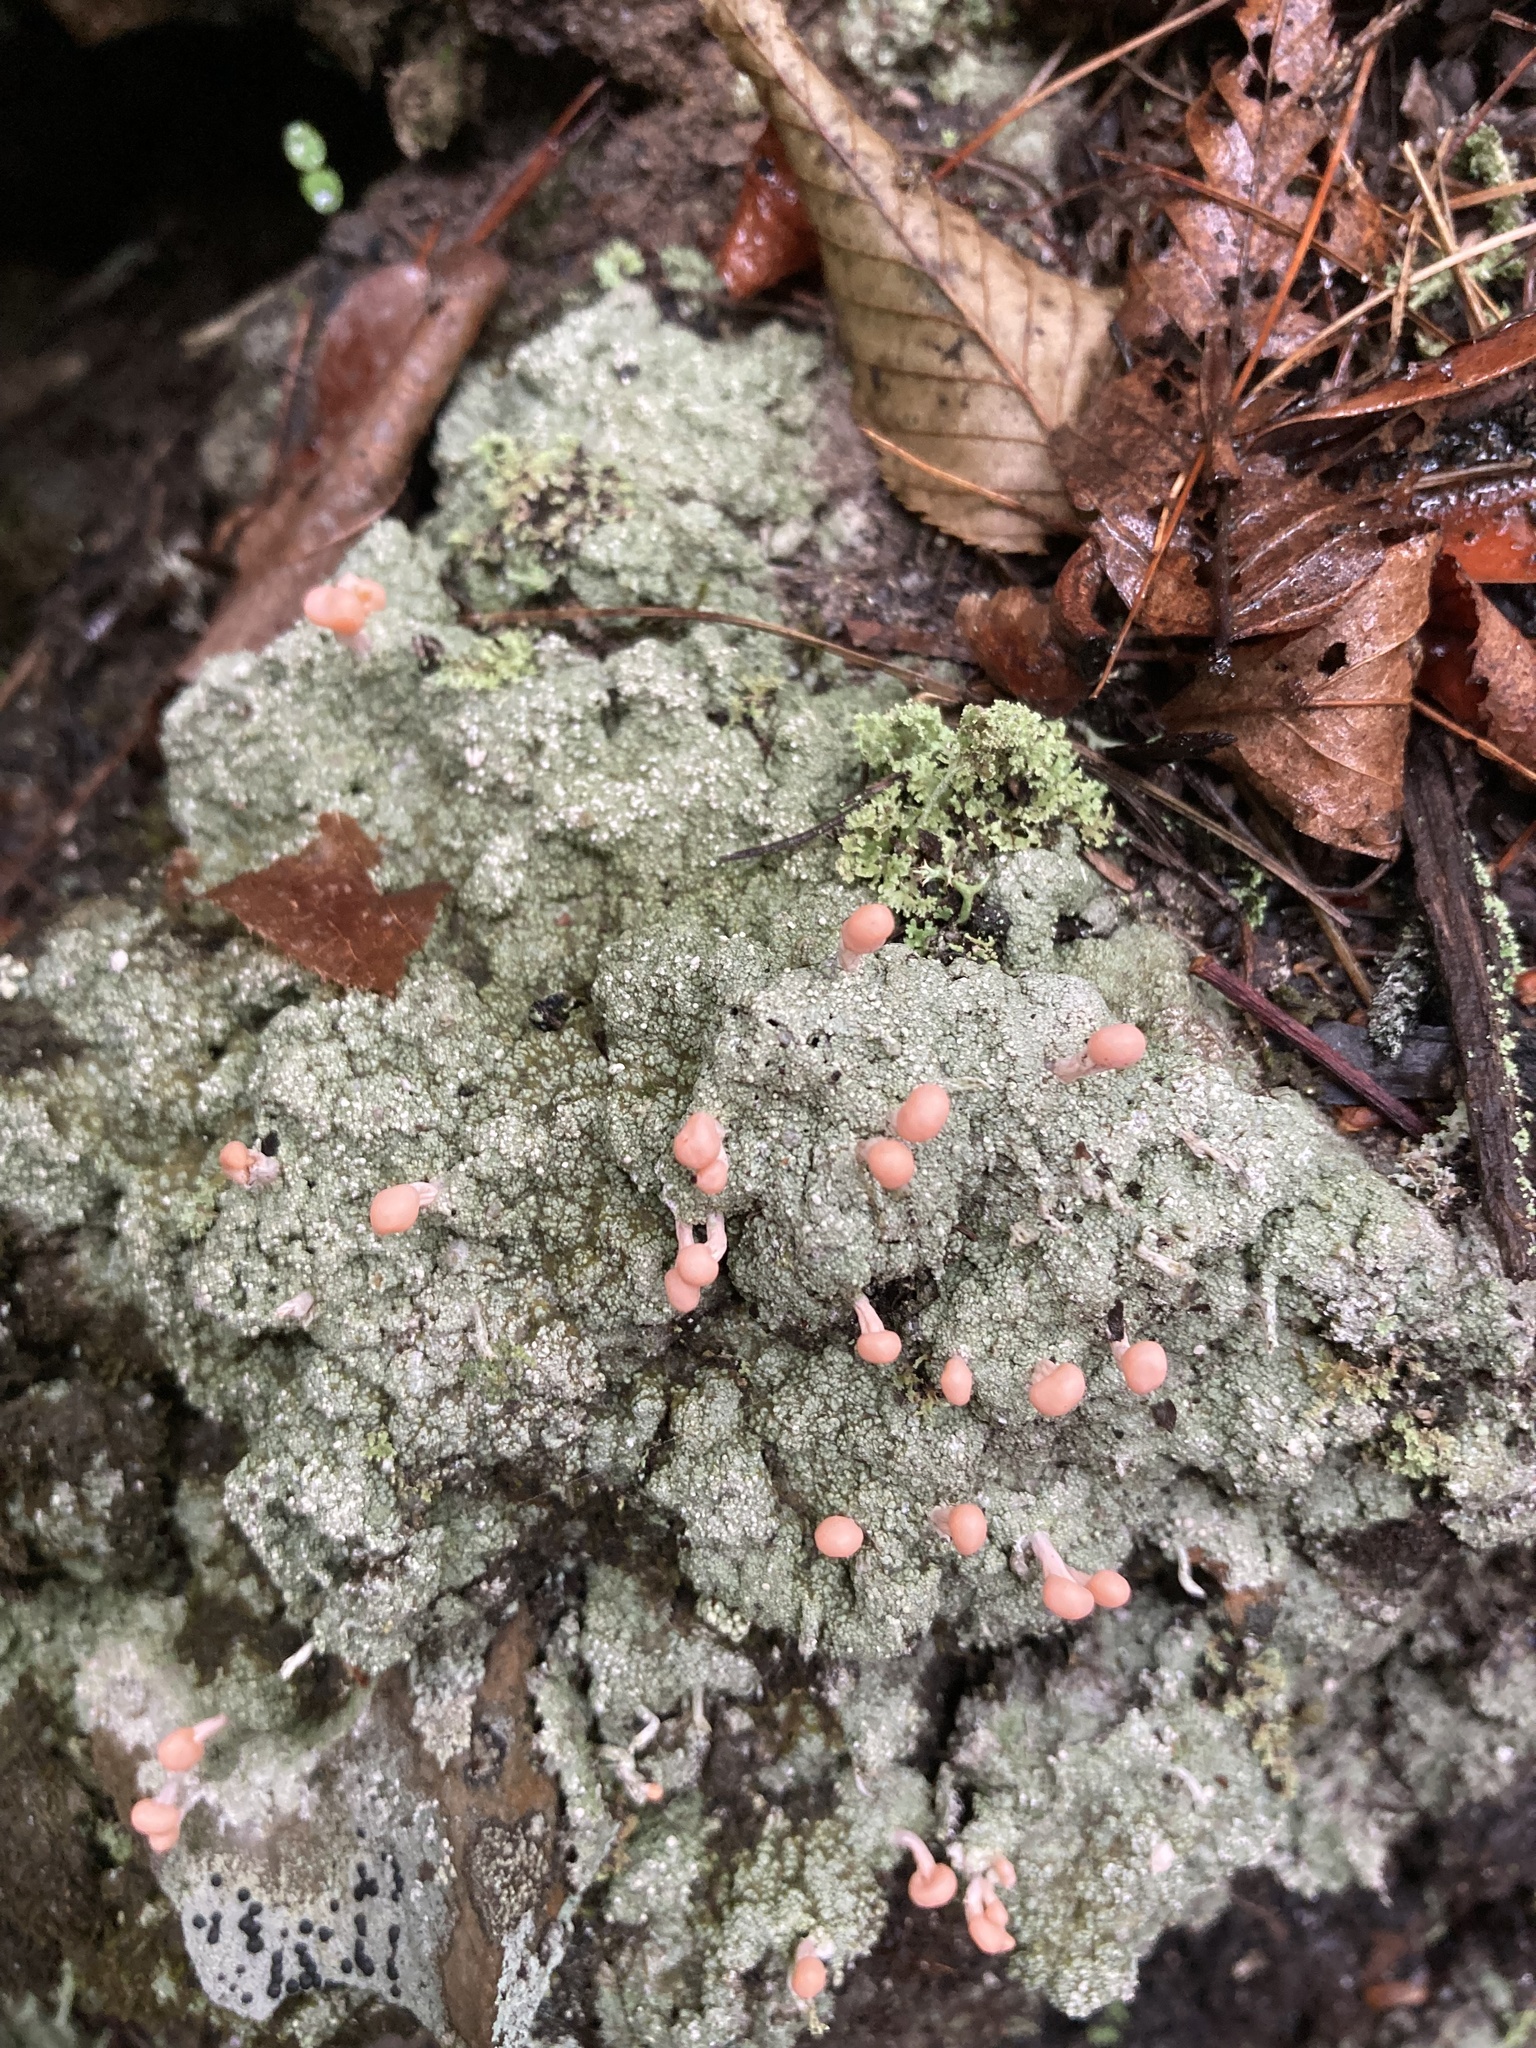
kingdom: Fungi
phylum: Ascomycota
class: Lecanoromycetes
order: Pertusariales
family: Icmadophilaceae
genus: Dibaeis
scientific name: Dibaeis baeomyces
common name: Pink earth lichen
